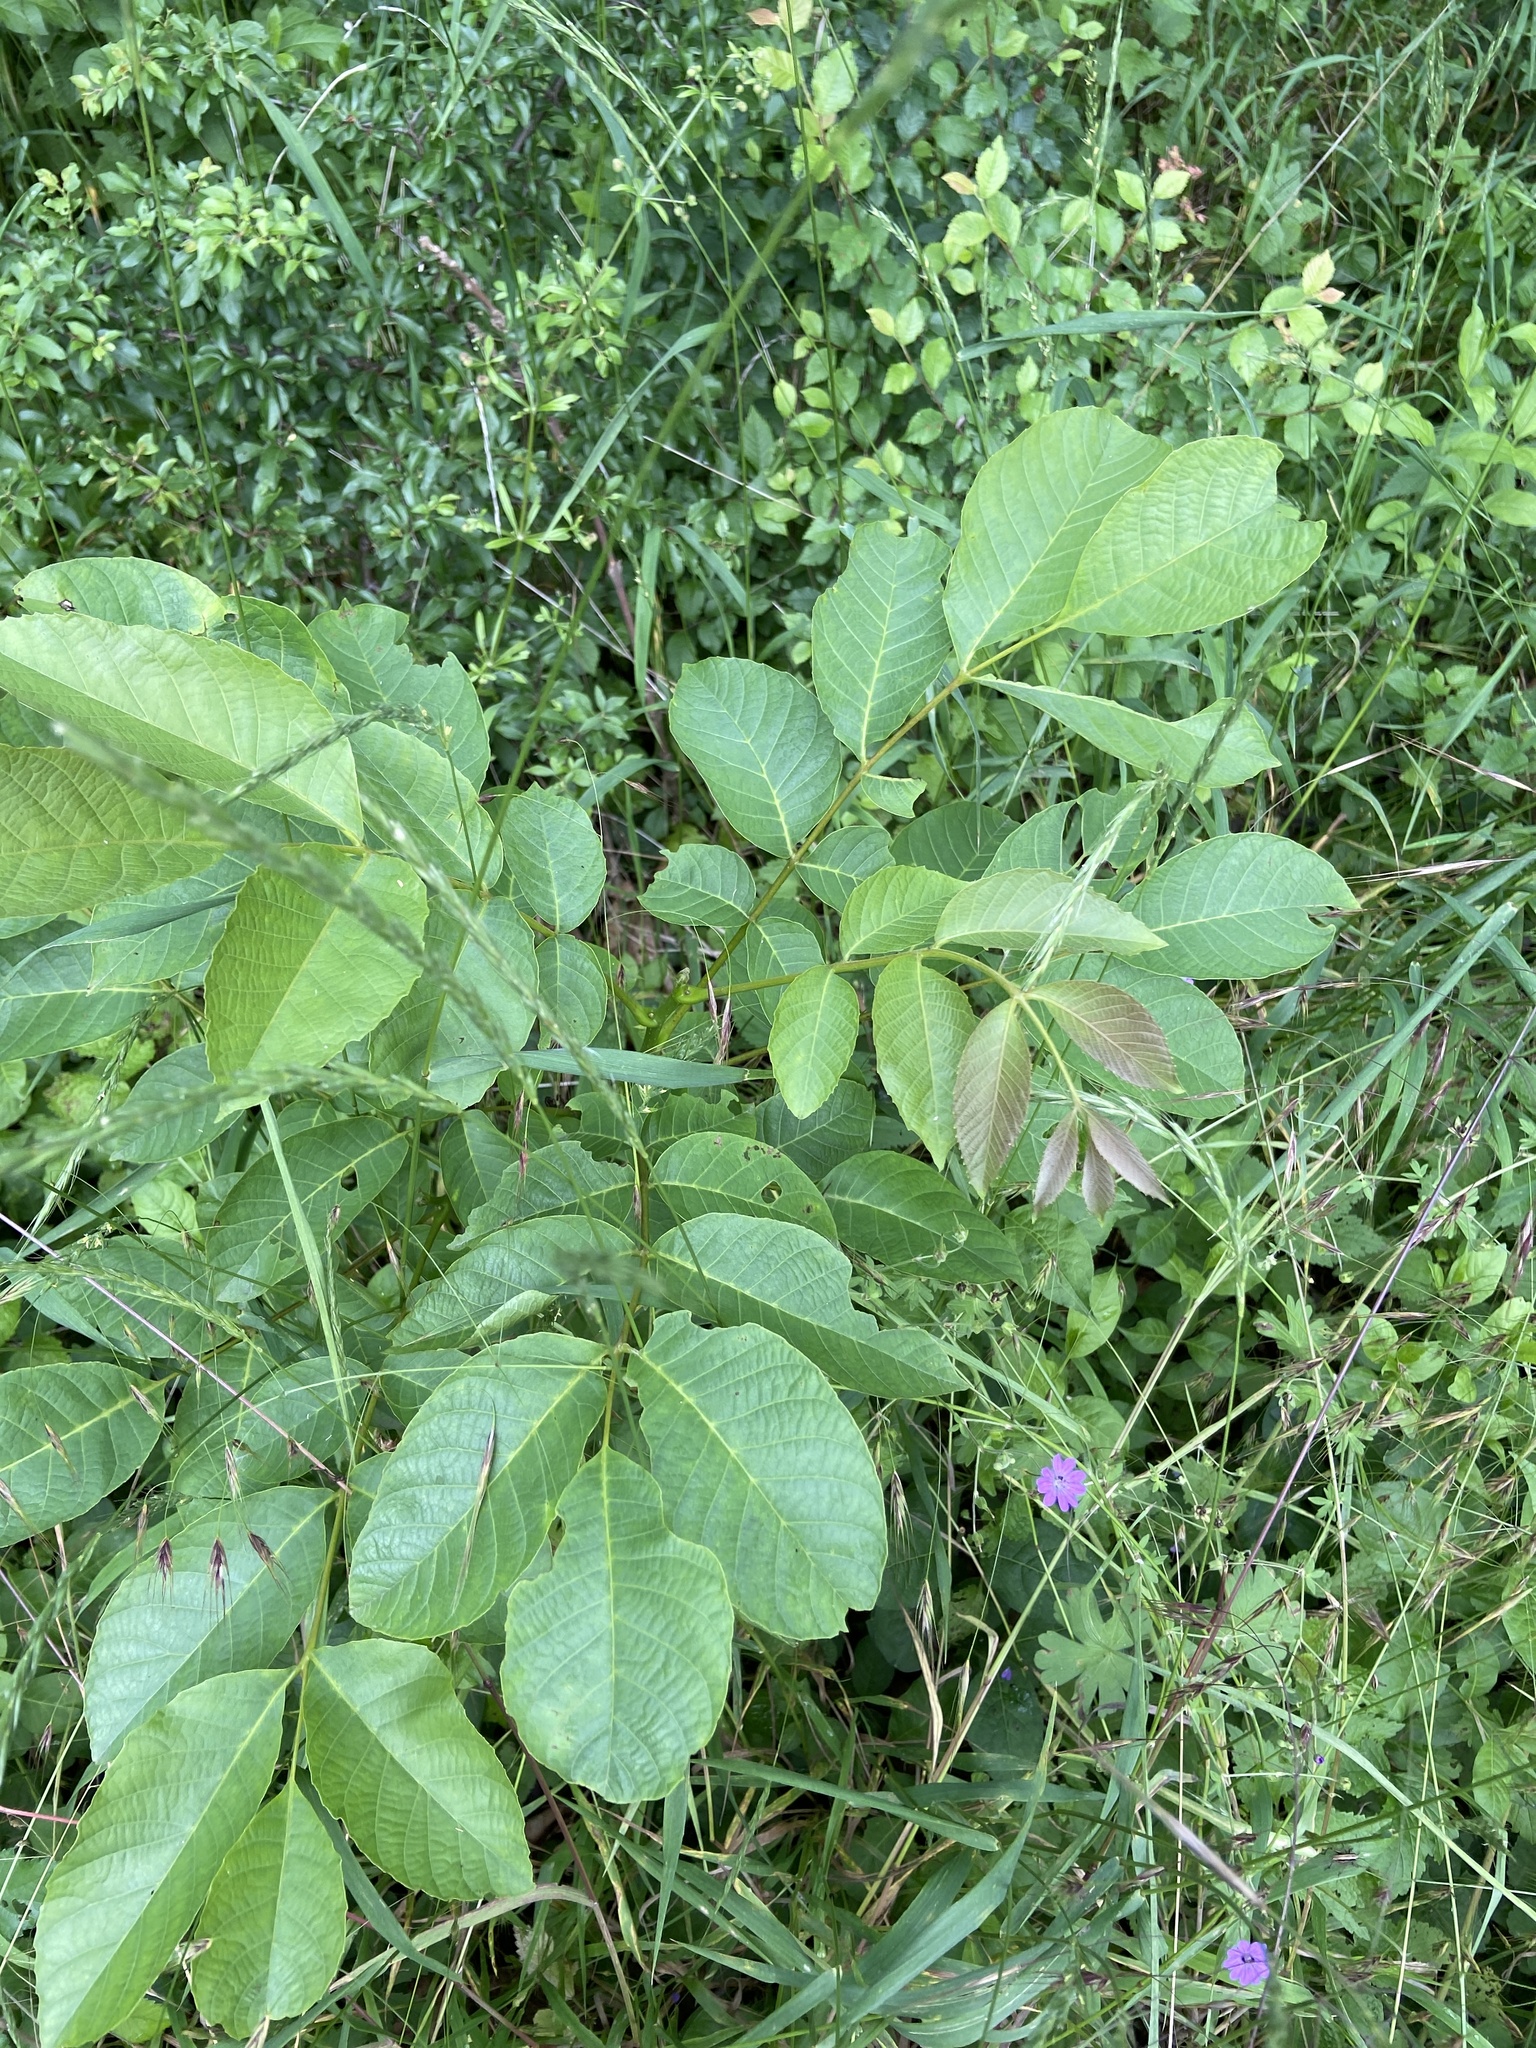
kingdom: Plantae
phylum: Tracheophyta
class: Magnoliopsida
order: Fagales
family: Juglandaceae
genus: Juglans
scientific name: Juglans regia
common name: Walnut
